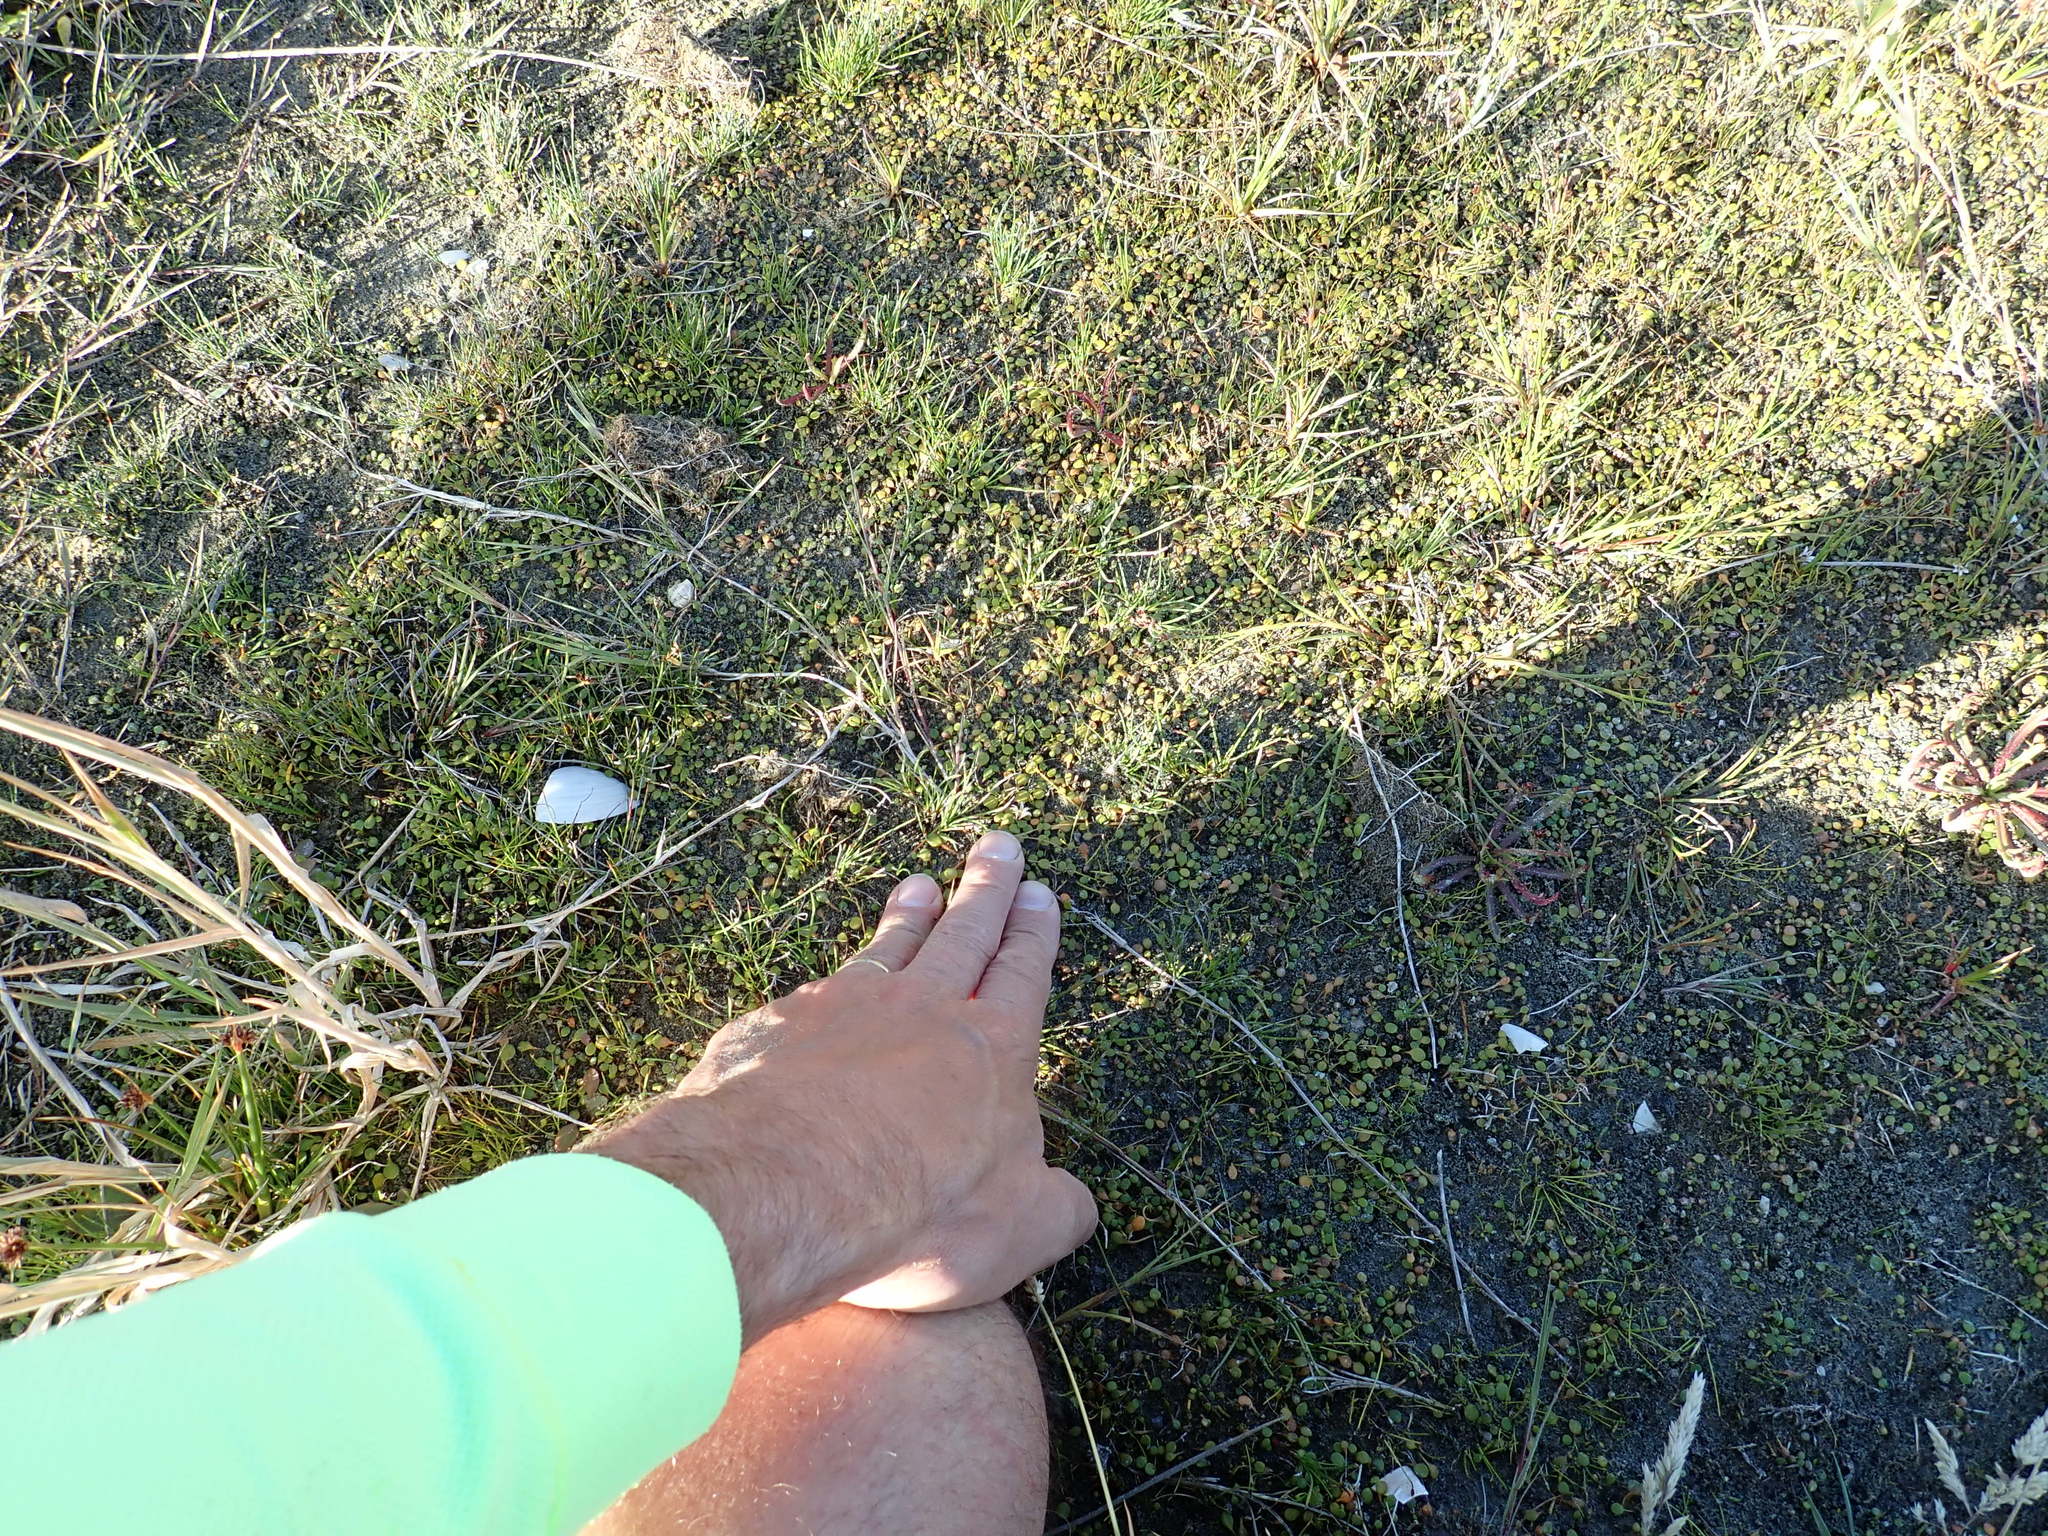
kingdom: Plantae
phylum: Tracheophyta
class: Magnoliopsida
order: Asterales
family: Goodeniaceae
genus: Goodenia
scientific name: Goodenia heenanii
